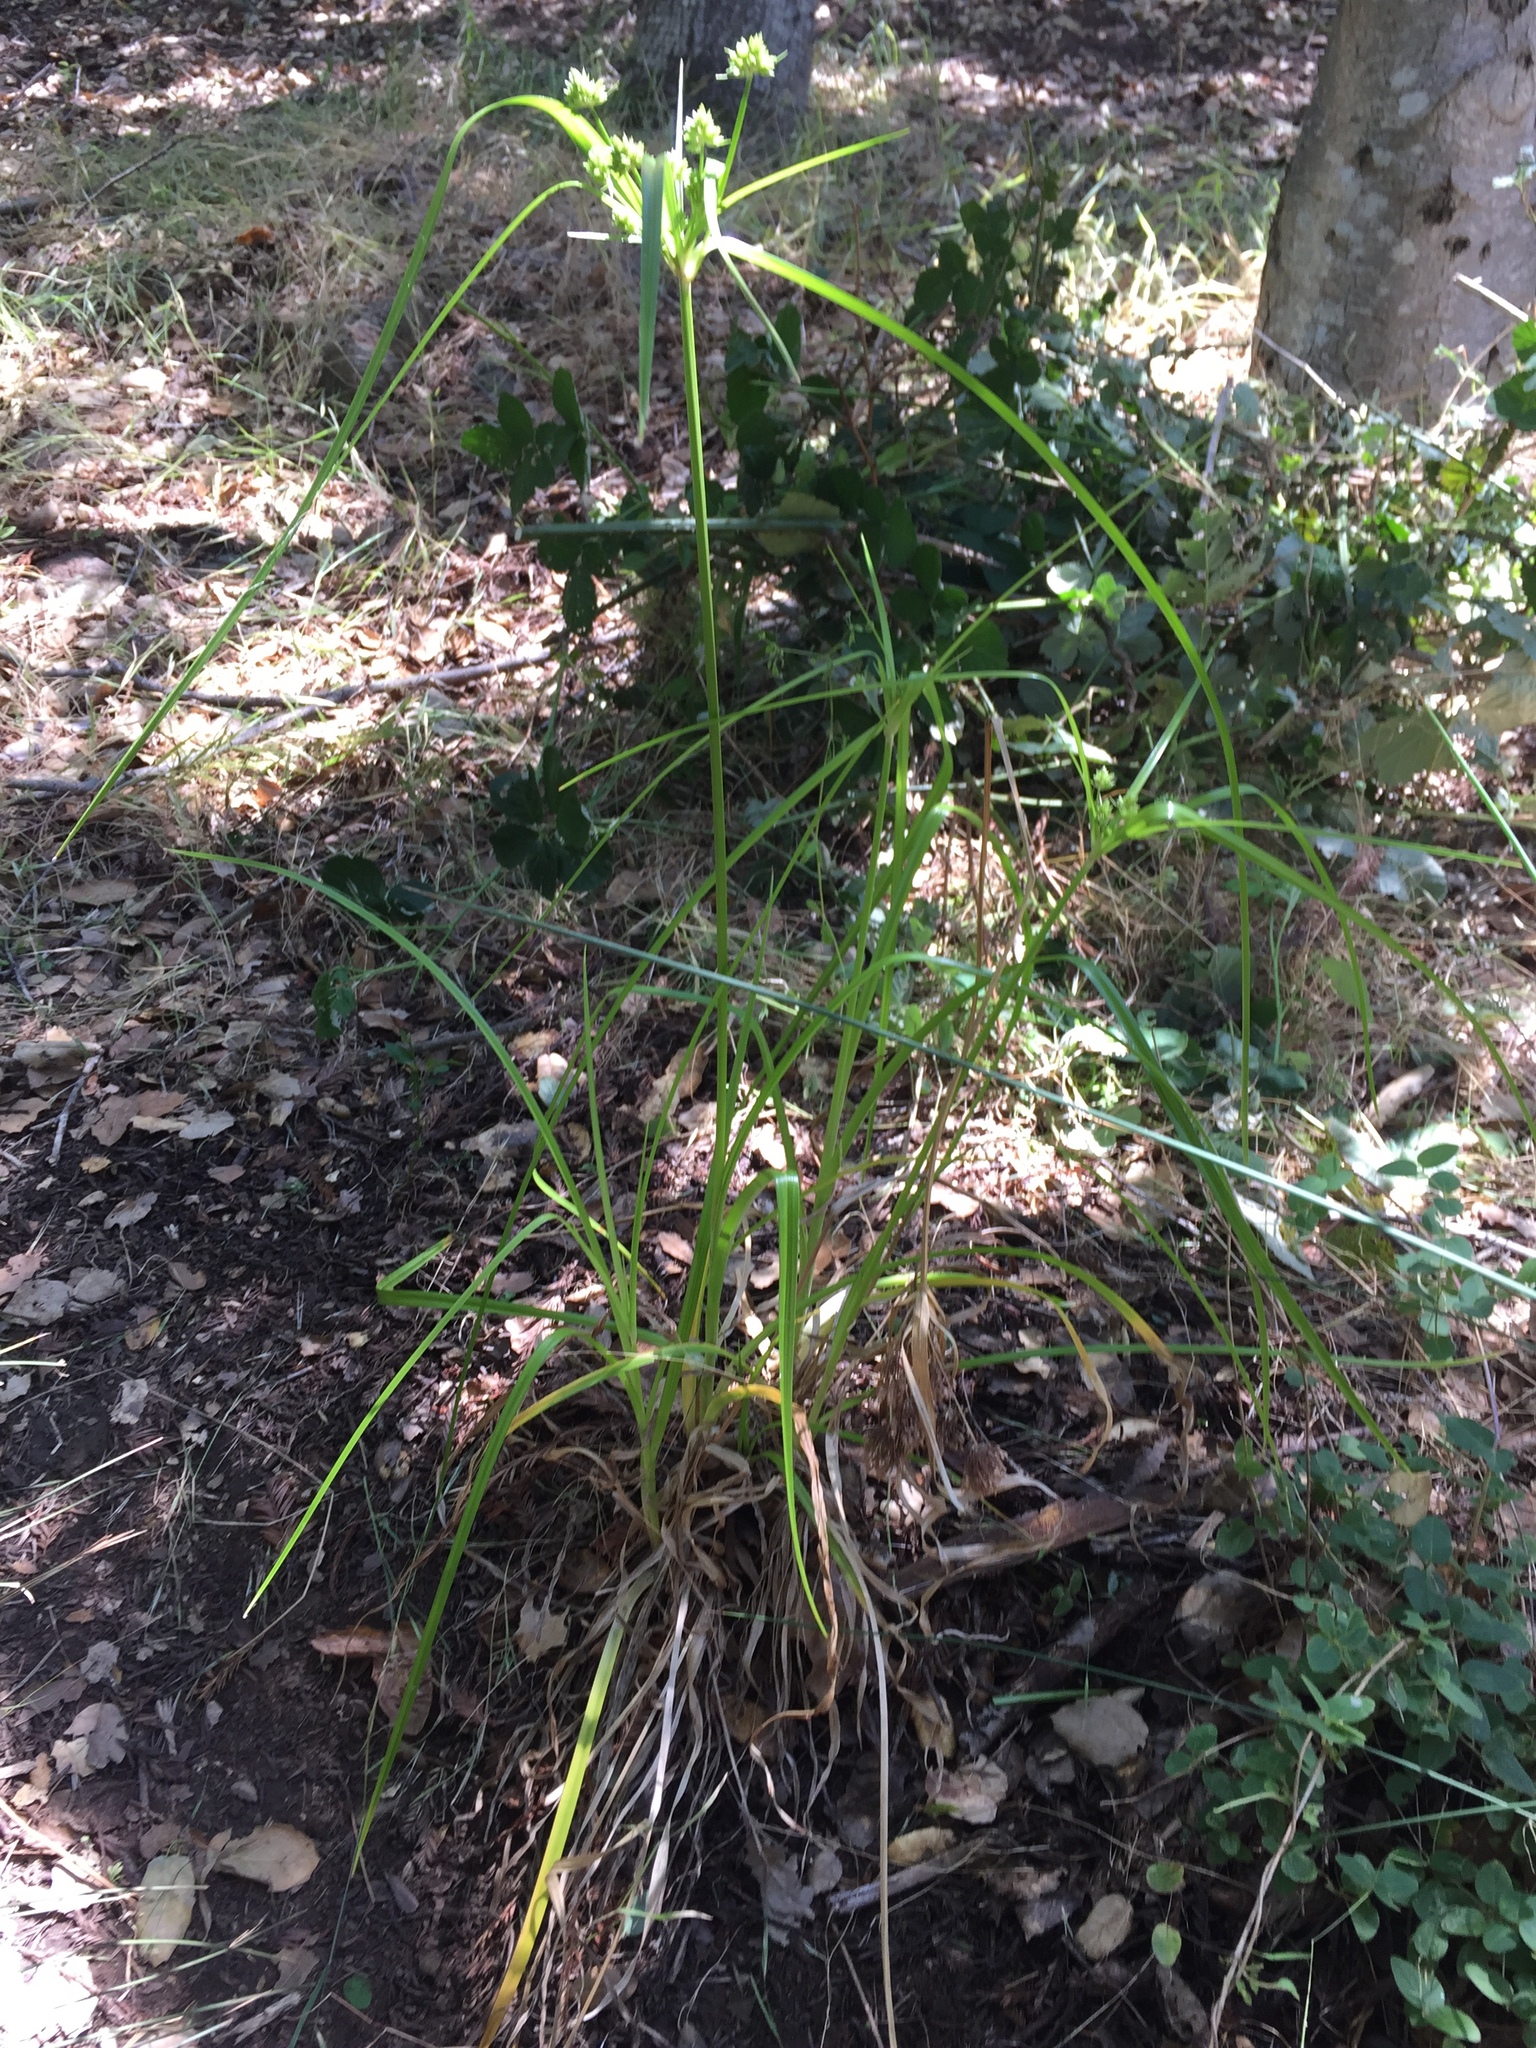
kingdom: Plantae
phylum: Tracheophyta
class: Liliopsida
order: Poales
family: Cyperaceae
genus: Cyperus
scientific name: Cyperus eragrostis
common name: Tall flatsedge
